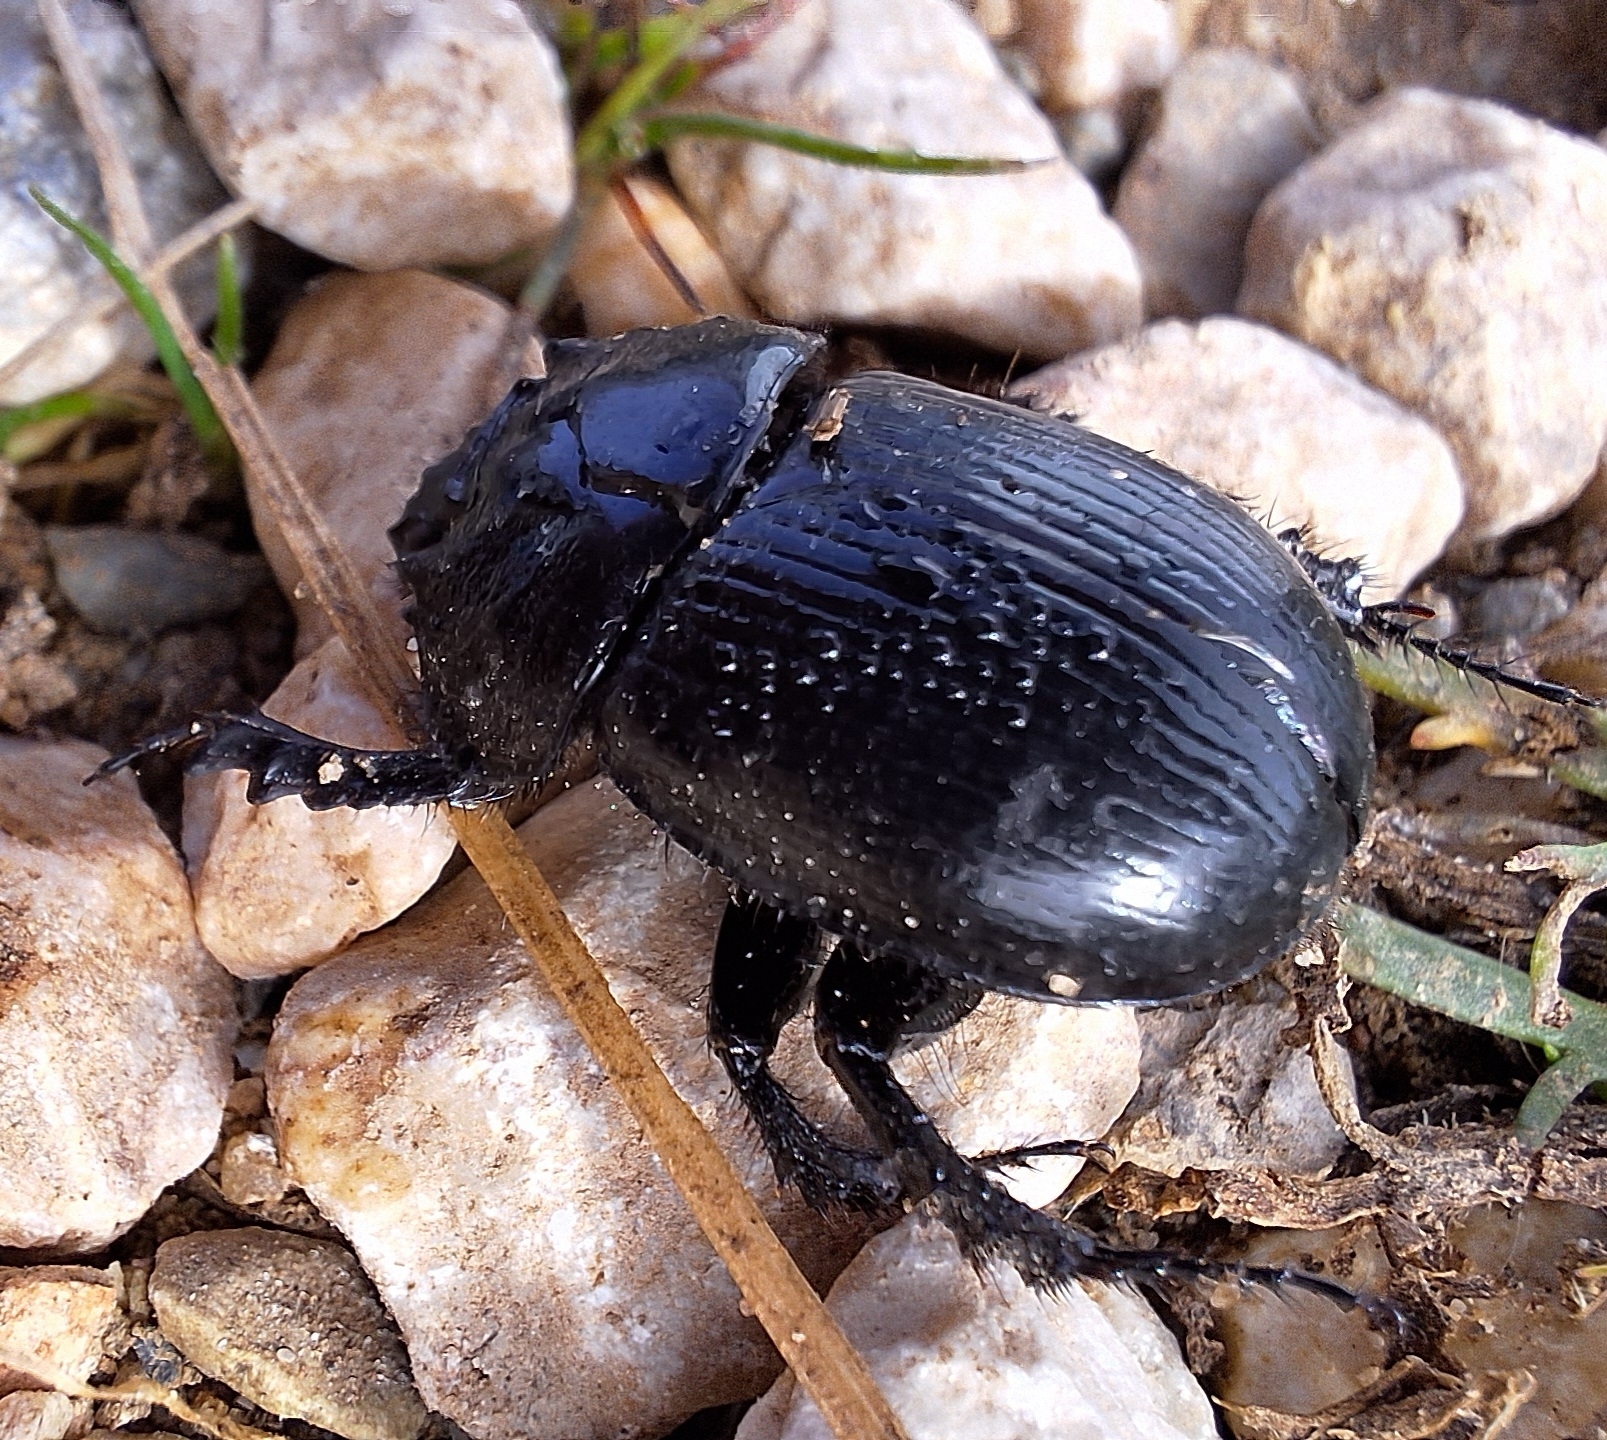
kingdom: Animalia
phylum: Arthropoda
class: Insecta
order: Coleoptera
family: Geotrupidae
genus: Typhaeus
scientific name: Typhaeus typhoeus
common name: Minotaur beetle
